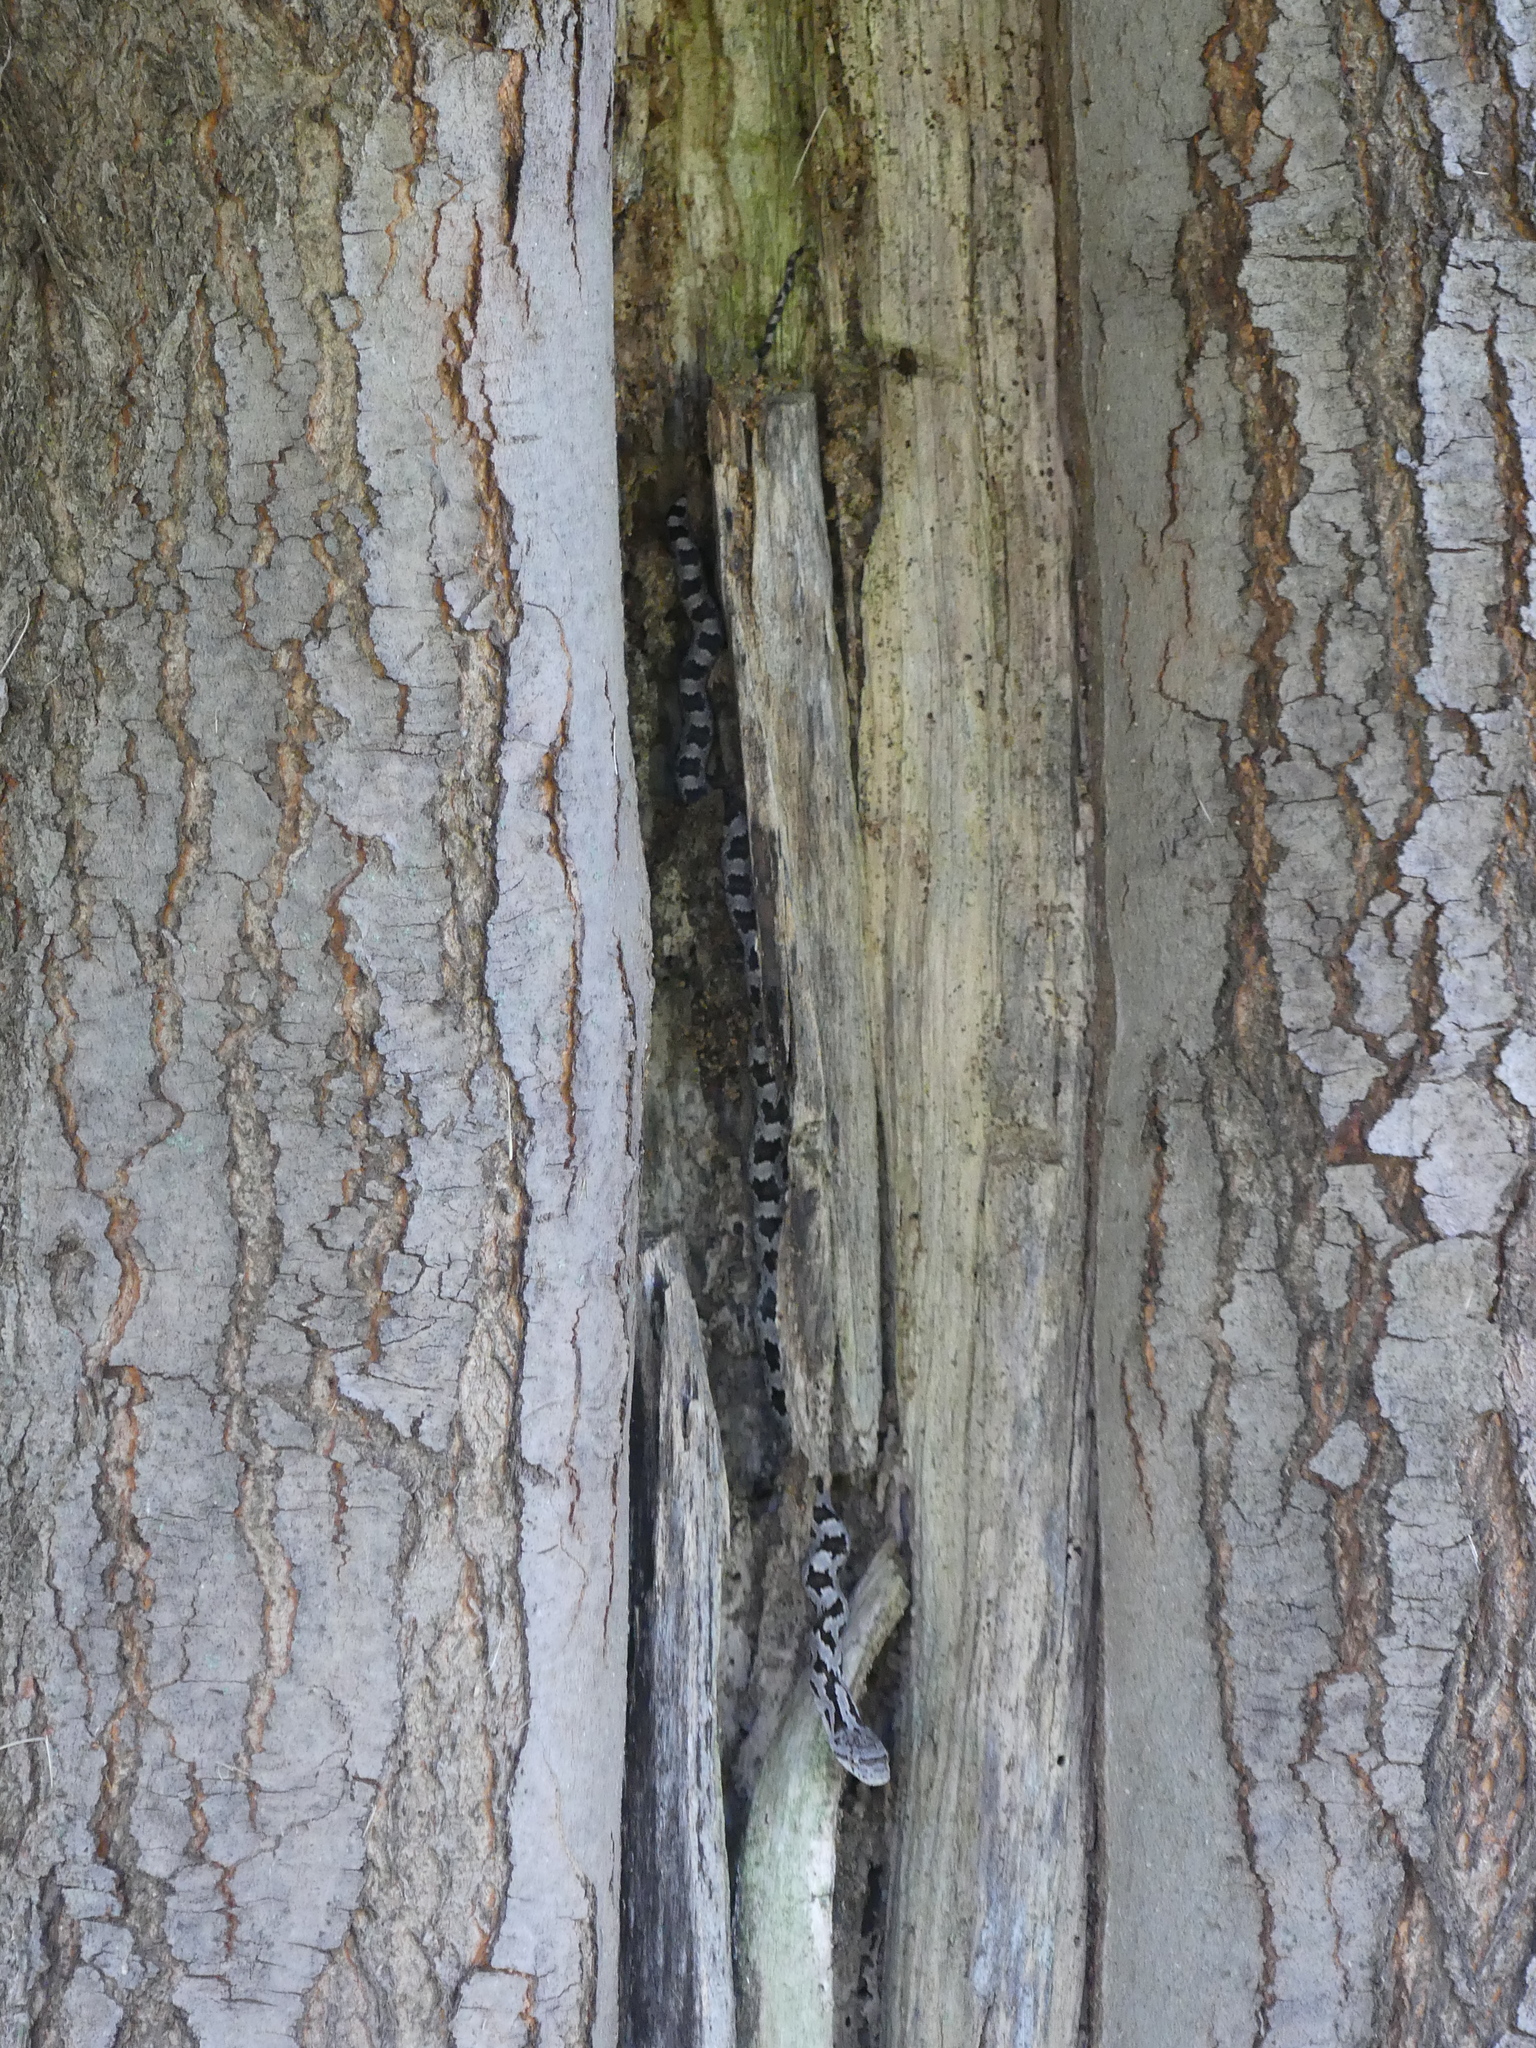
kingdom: Animalia
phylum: Chordata
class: Squamata
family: Colubridae
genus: Pantherophis
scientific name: Pantherophis alleghaniensis
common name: Eastern rat snake
